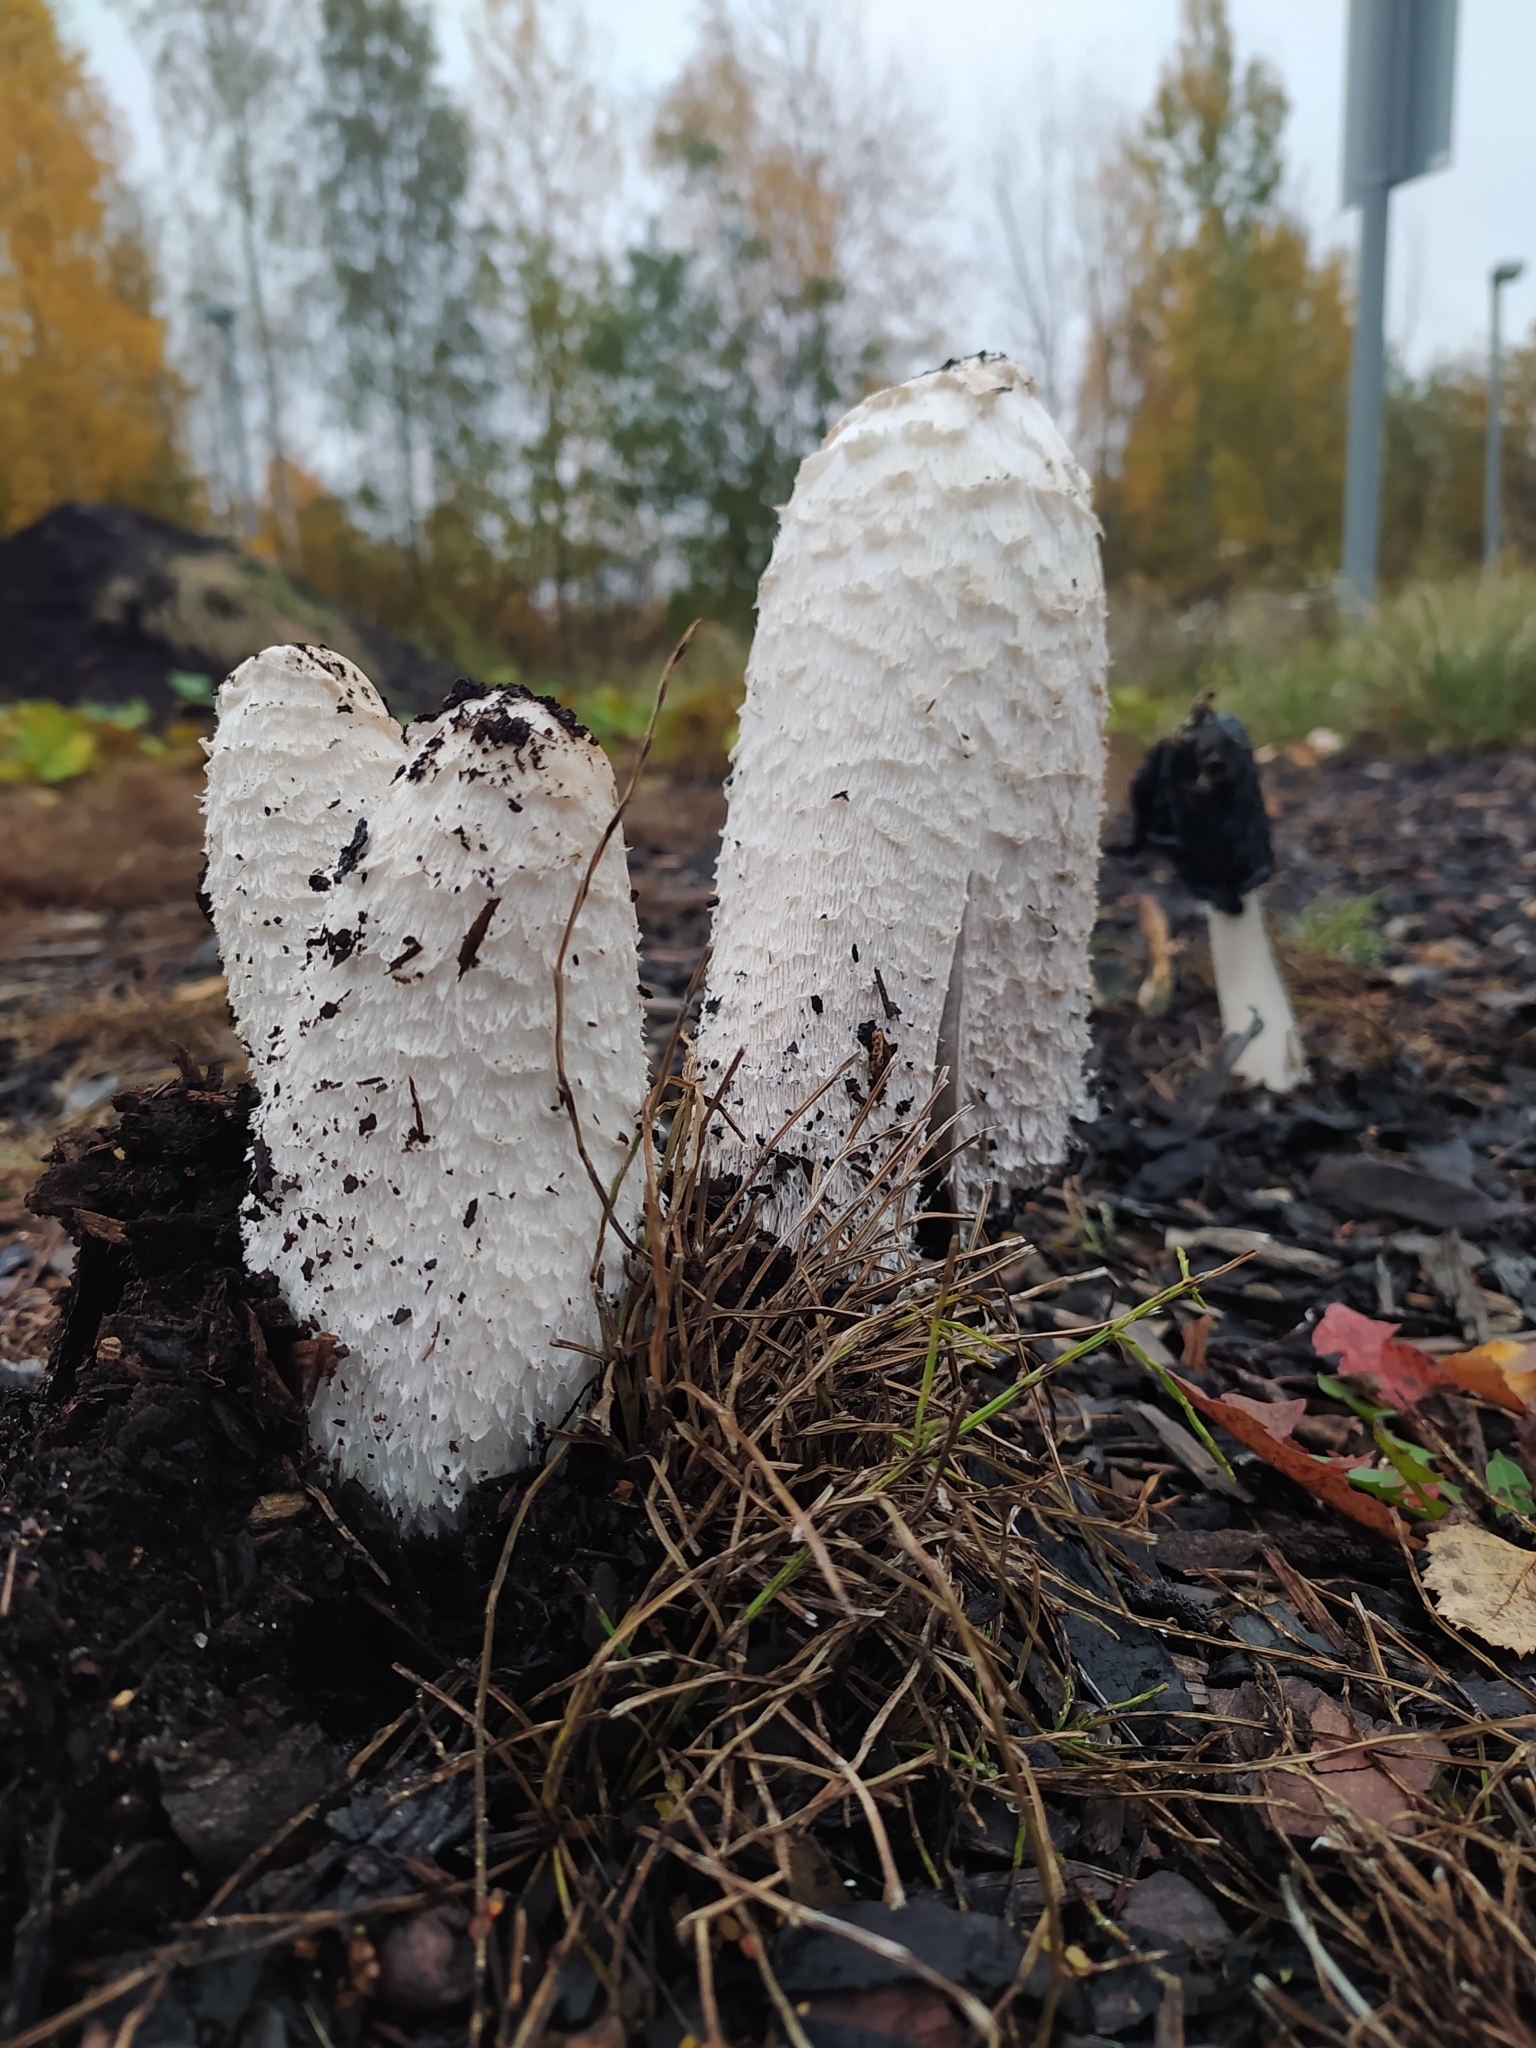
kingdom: Fungi
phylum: Basidiomycota
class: Agaricomycetes
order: Agaricales
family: Agaricaceae
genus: Coprinus
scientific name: Coprinus comatus
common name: Lawyer's wig
